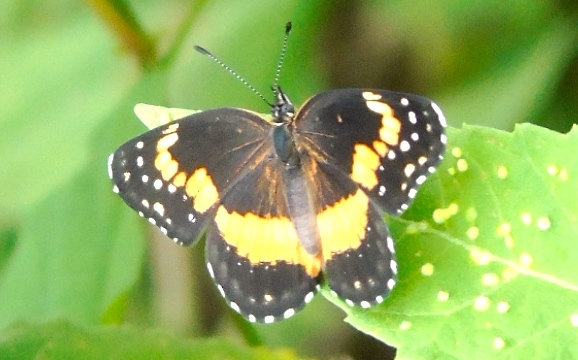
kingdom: Animalia
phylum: Arthropoda
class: Insecta
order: Lepidoptera
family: Nymphalidae
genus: Chlosyne
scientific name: Chlosyne lacinia
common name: Bordered patch
